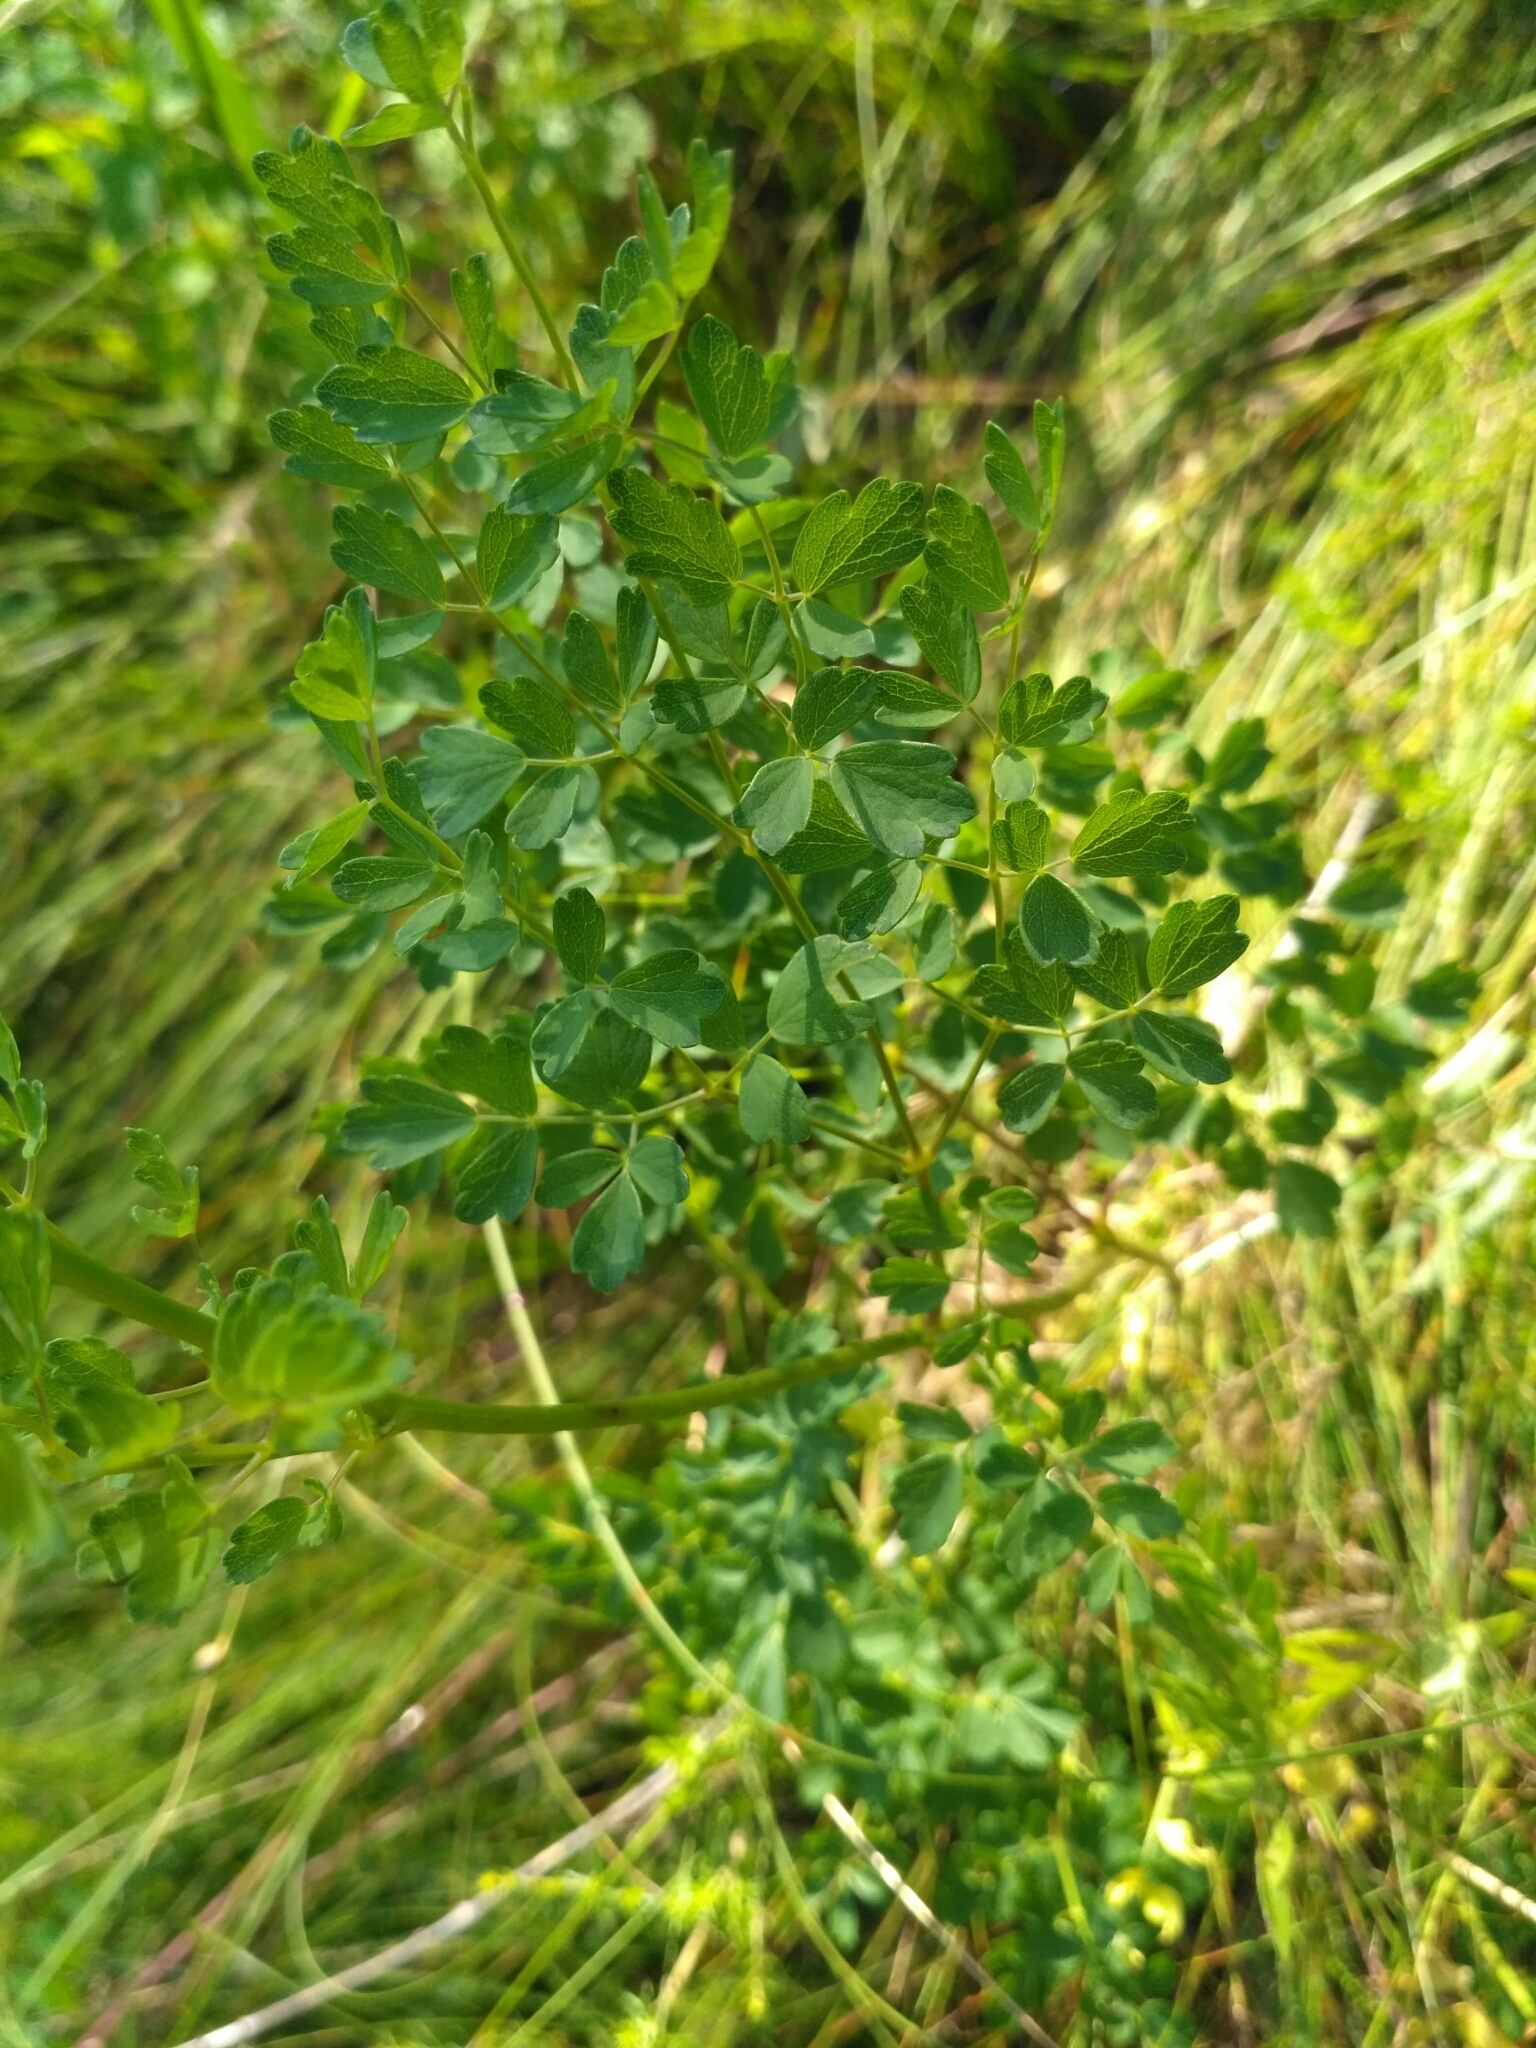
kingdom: Plantae
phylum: Tracheophyta
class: Magnoliopsida
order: Ranunculales
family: Ranunculaceae
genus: Thalictrum
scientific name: Thalictrum minus
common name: Lesser meadow-rue
